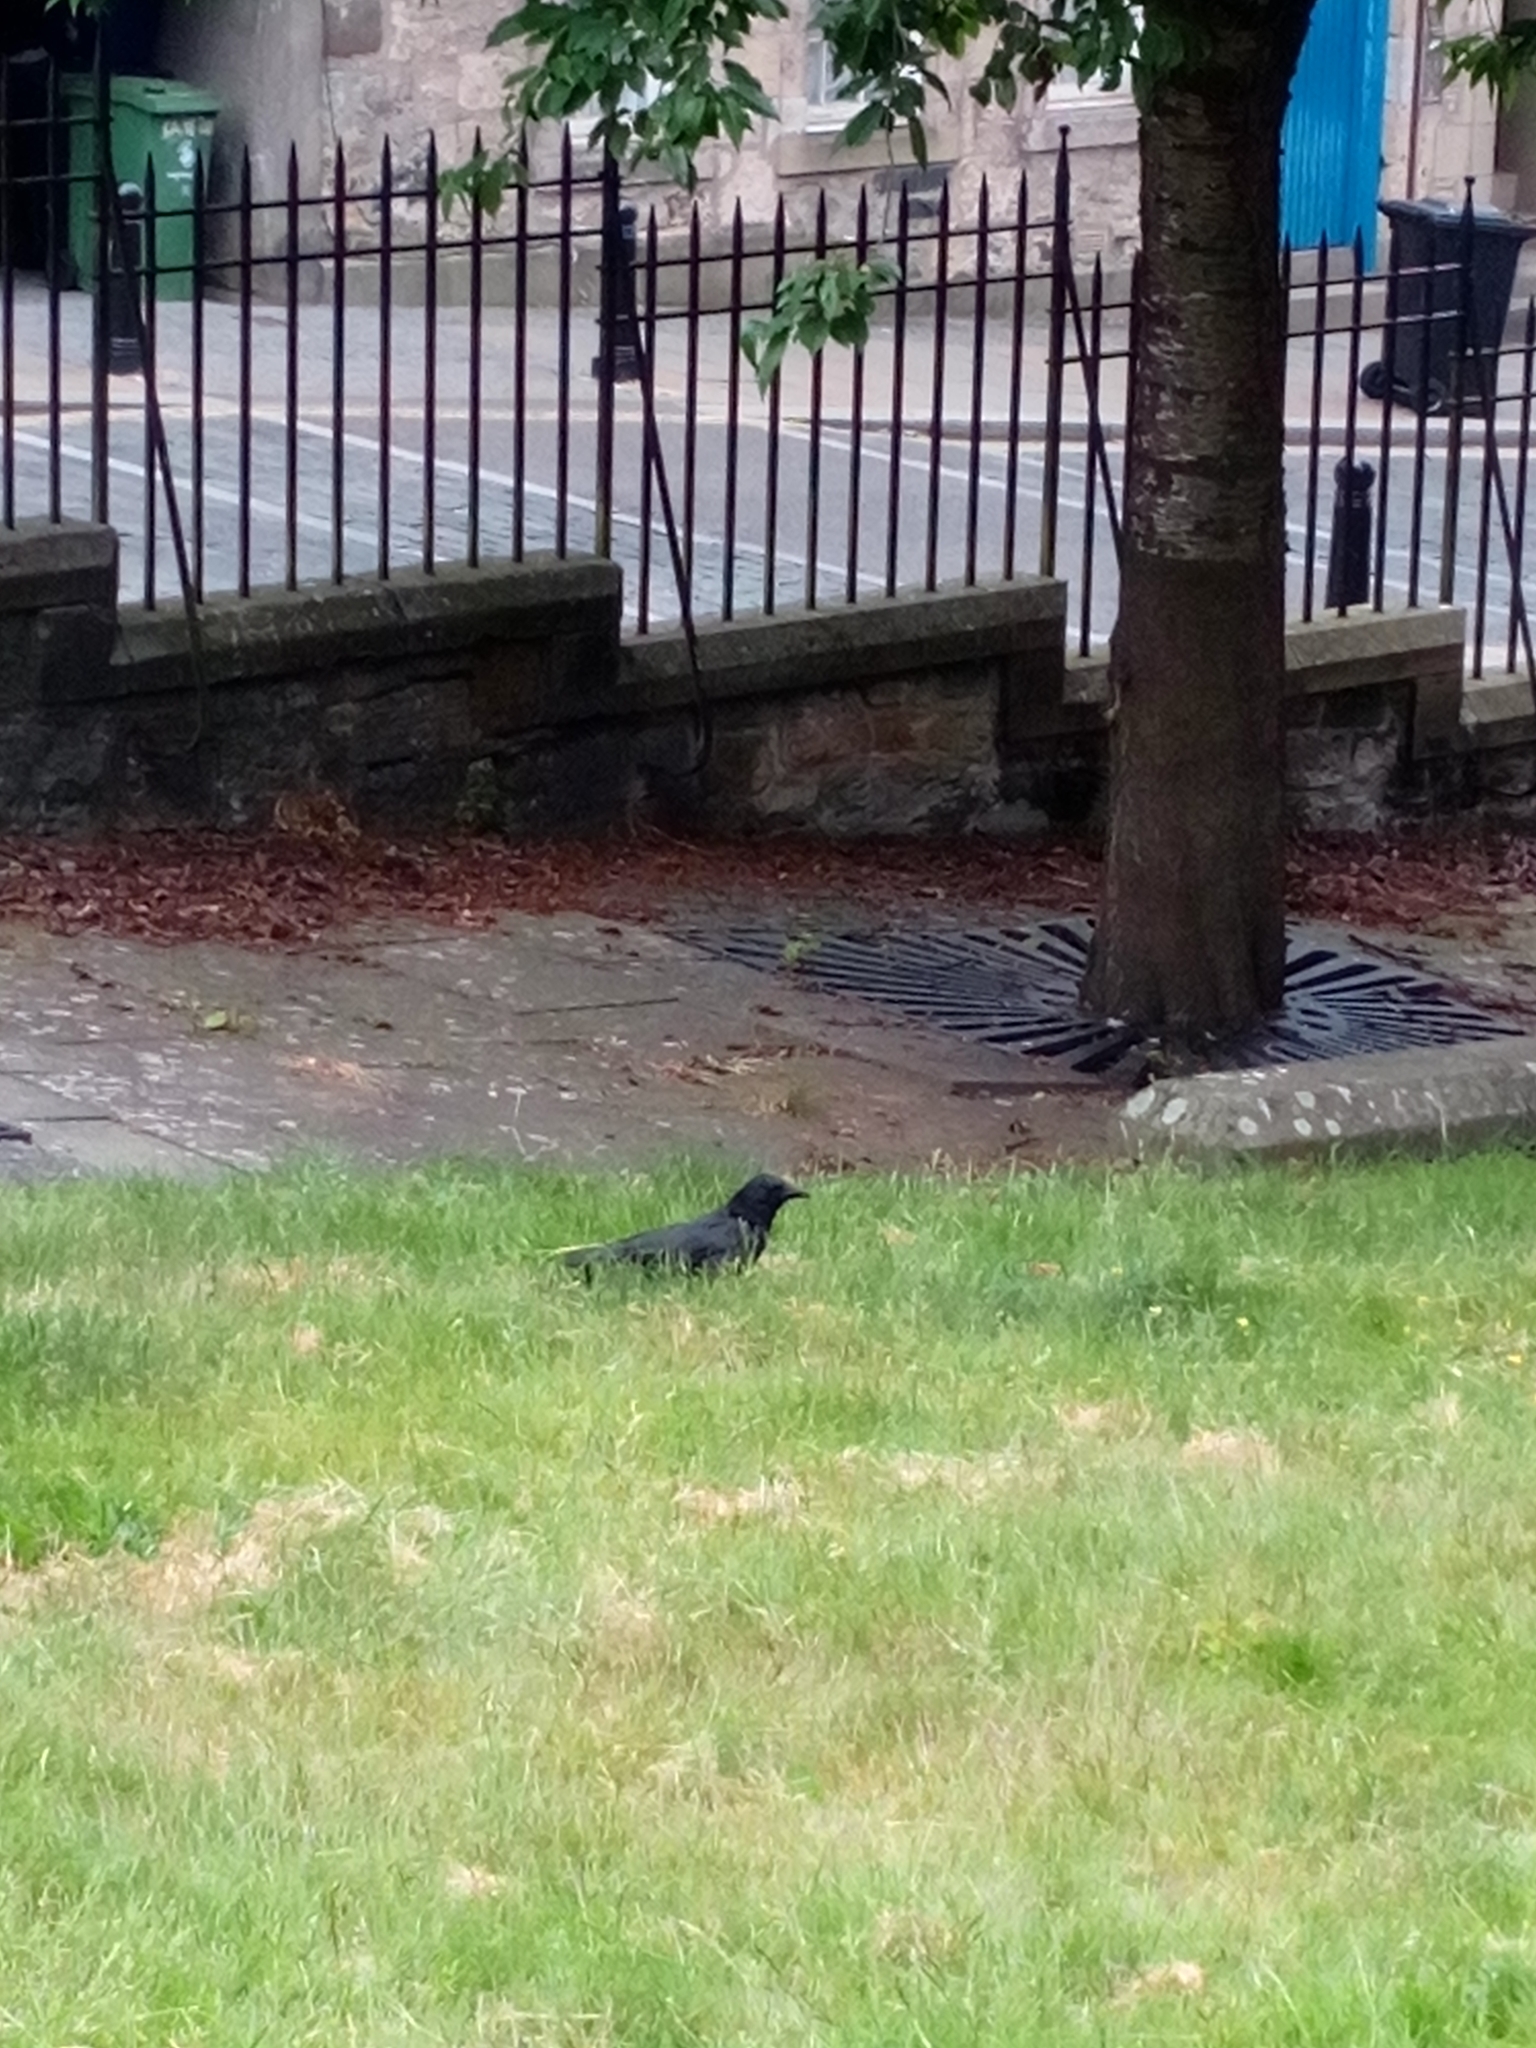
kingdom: Animalia
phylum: Chordata
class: Aves
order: Passeriformes
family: Corvidae
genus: Corvus
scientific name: Corvus corone
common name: Carrion crow
